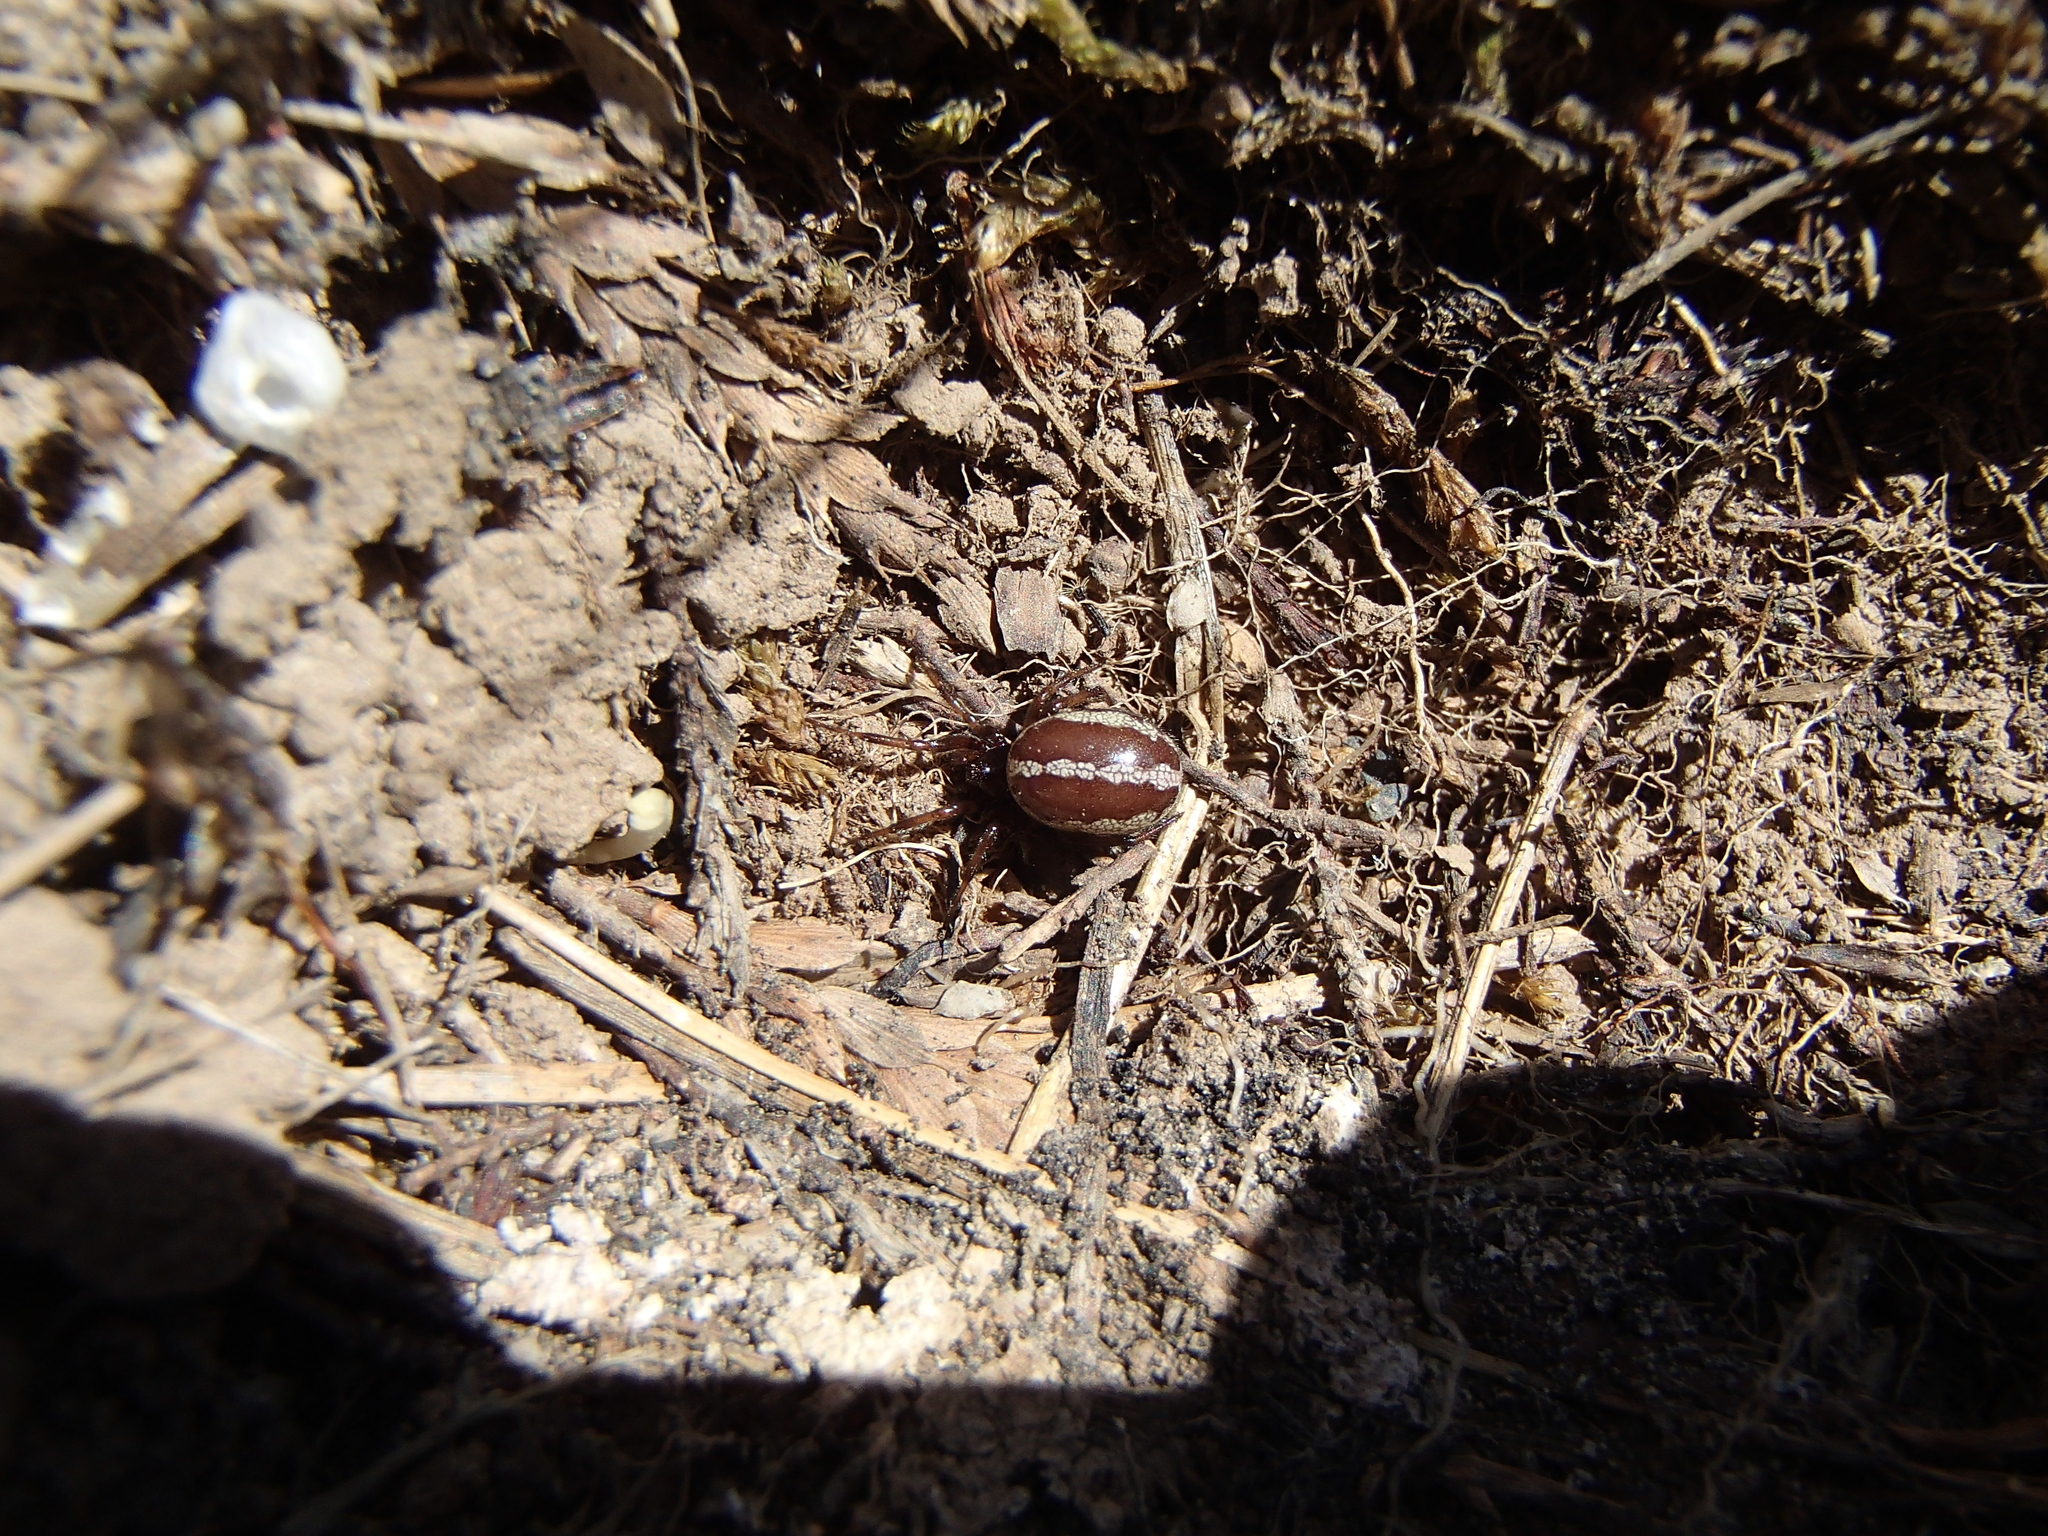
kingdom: Animalia
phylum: Arthropoda
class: Arachnida
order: Araneae
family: Theridiidae
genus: Steatoda
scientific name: Steatoda lepida
